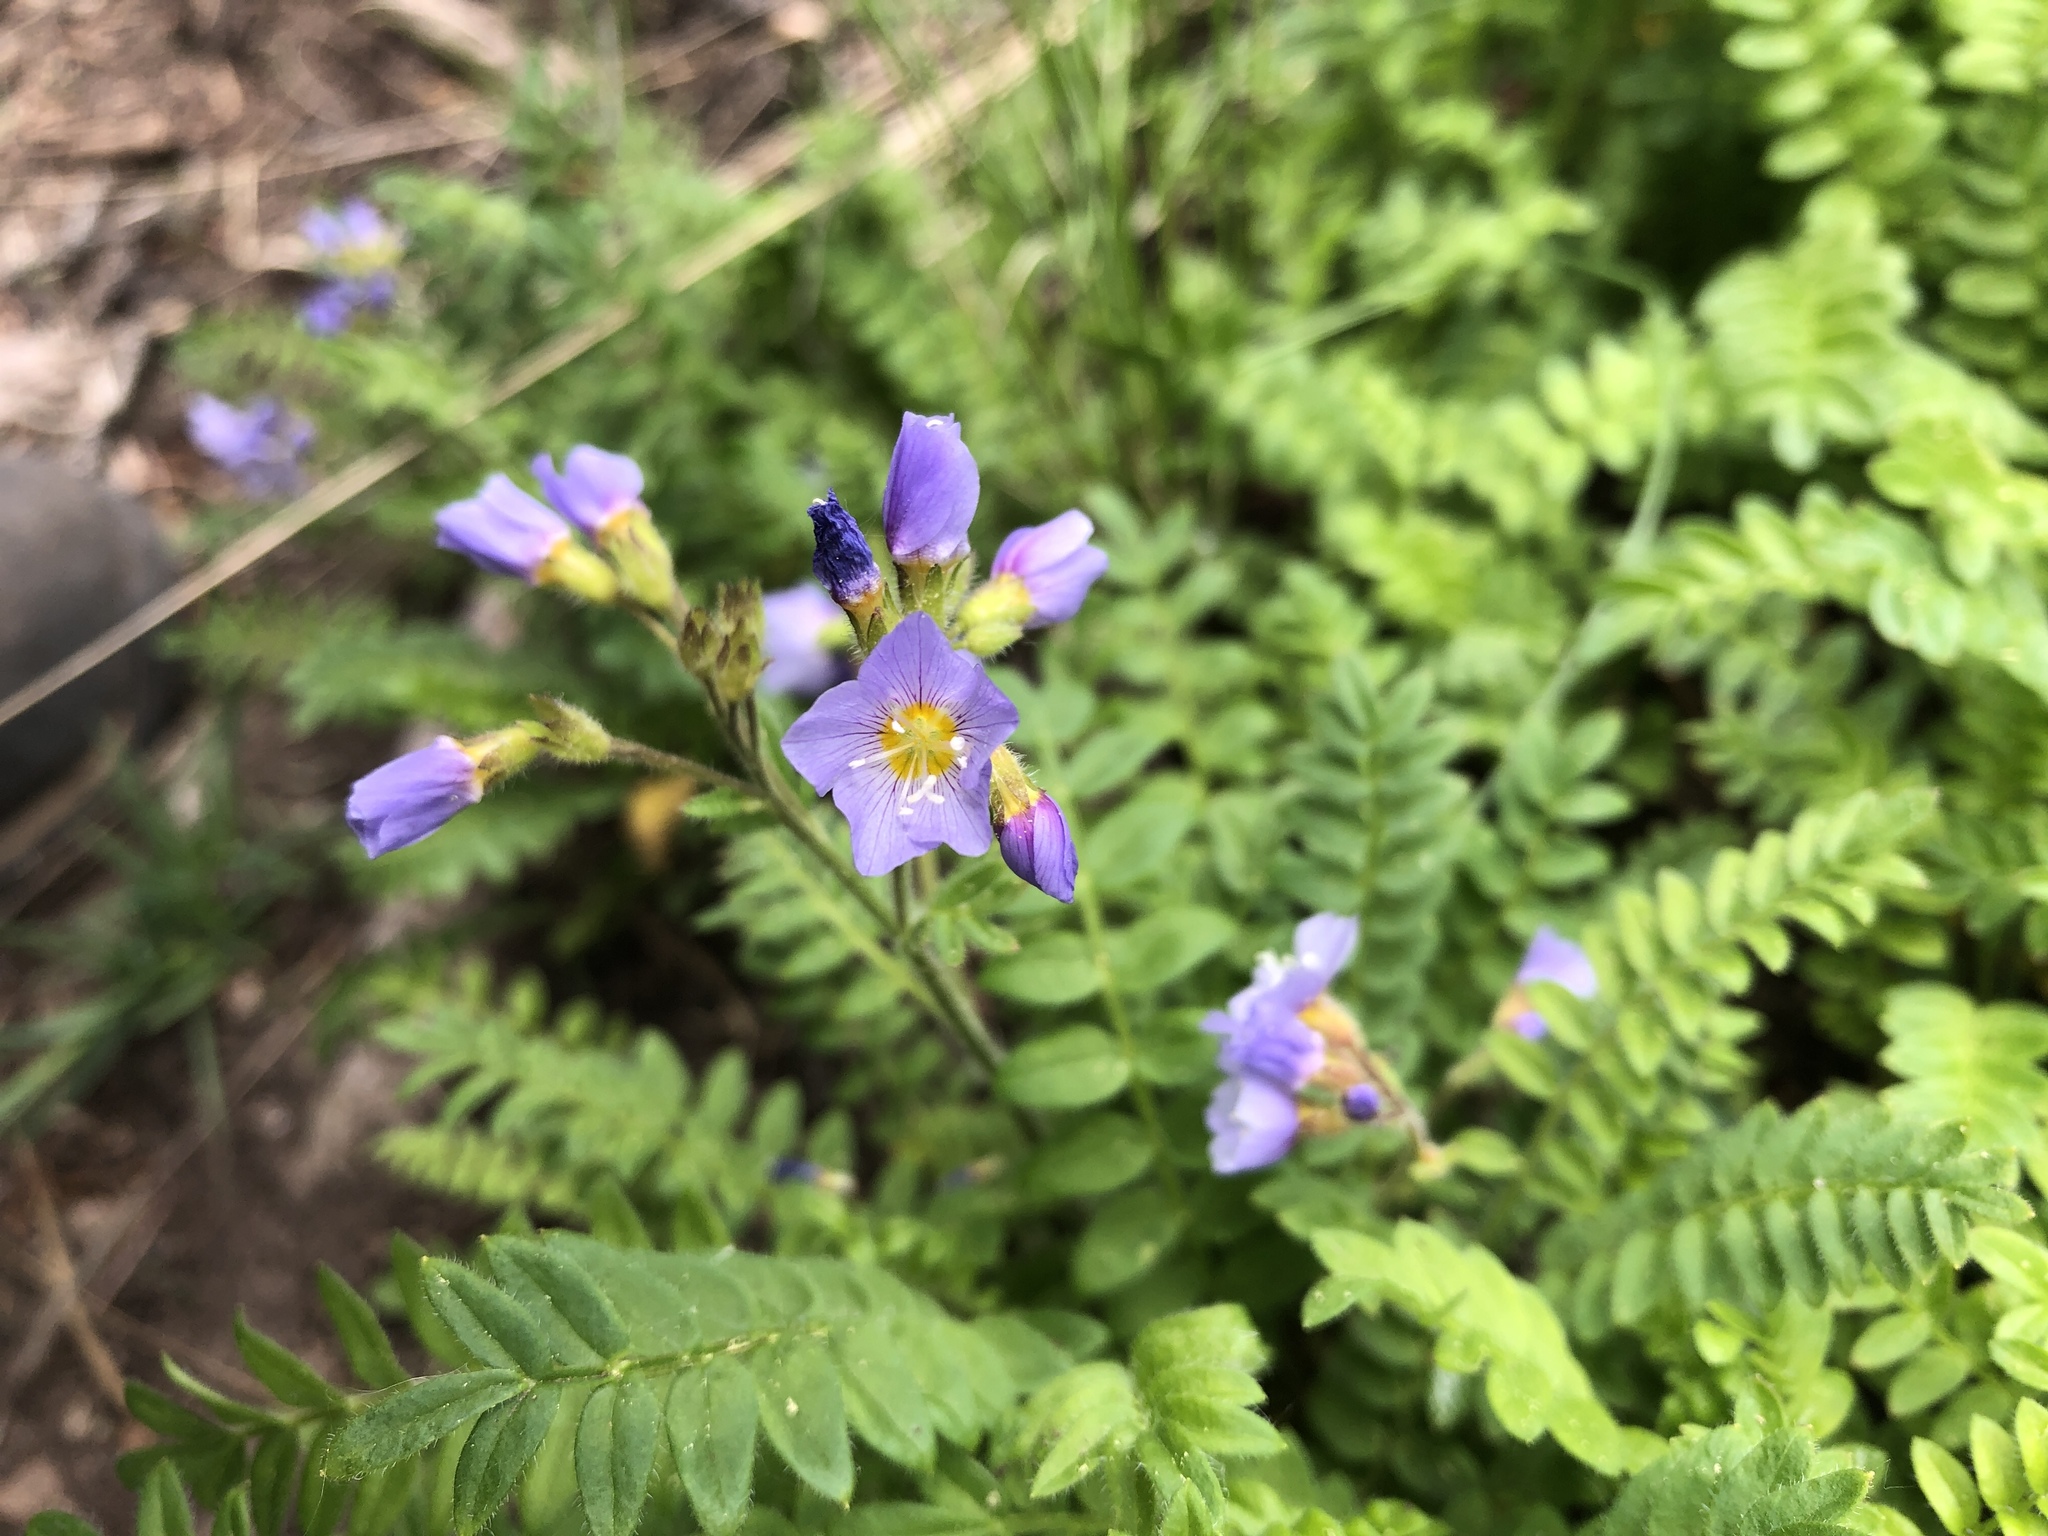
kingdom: Plantae
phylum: Tracheophyta
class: Magnoliopsida
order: Ericales
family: Polemoniaceae
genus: Polemonium
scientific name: Polemonium pulcherrimum
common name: Short jacob's-ladder
